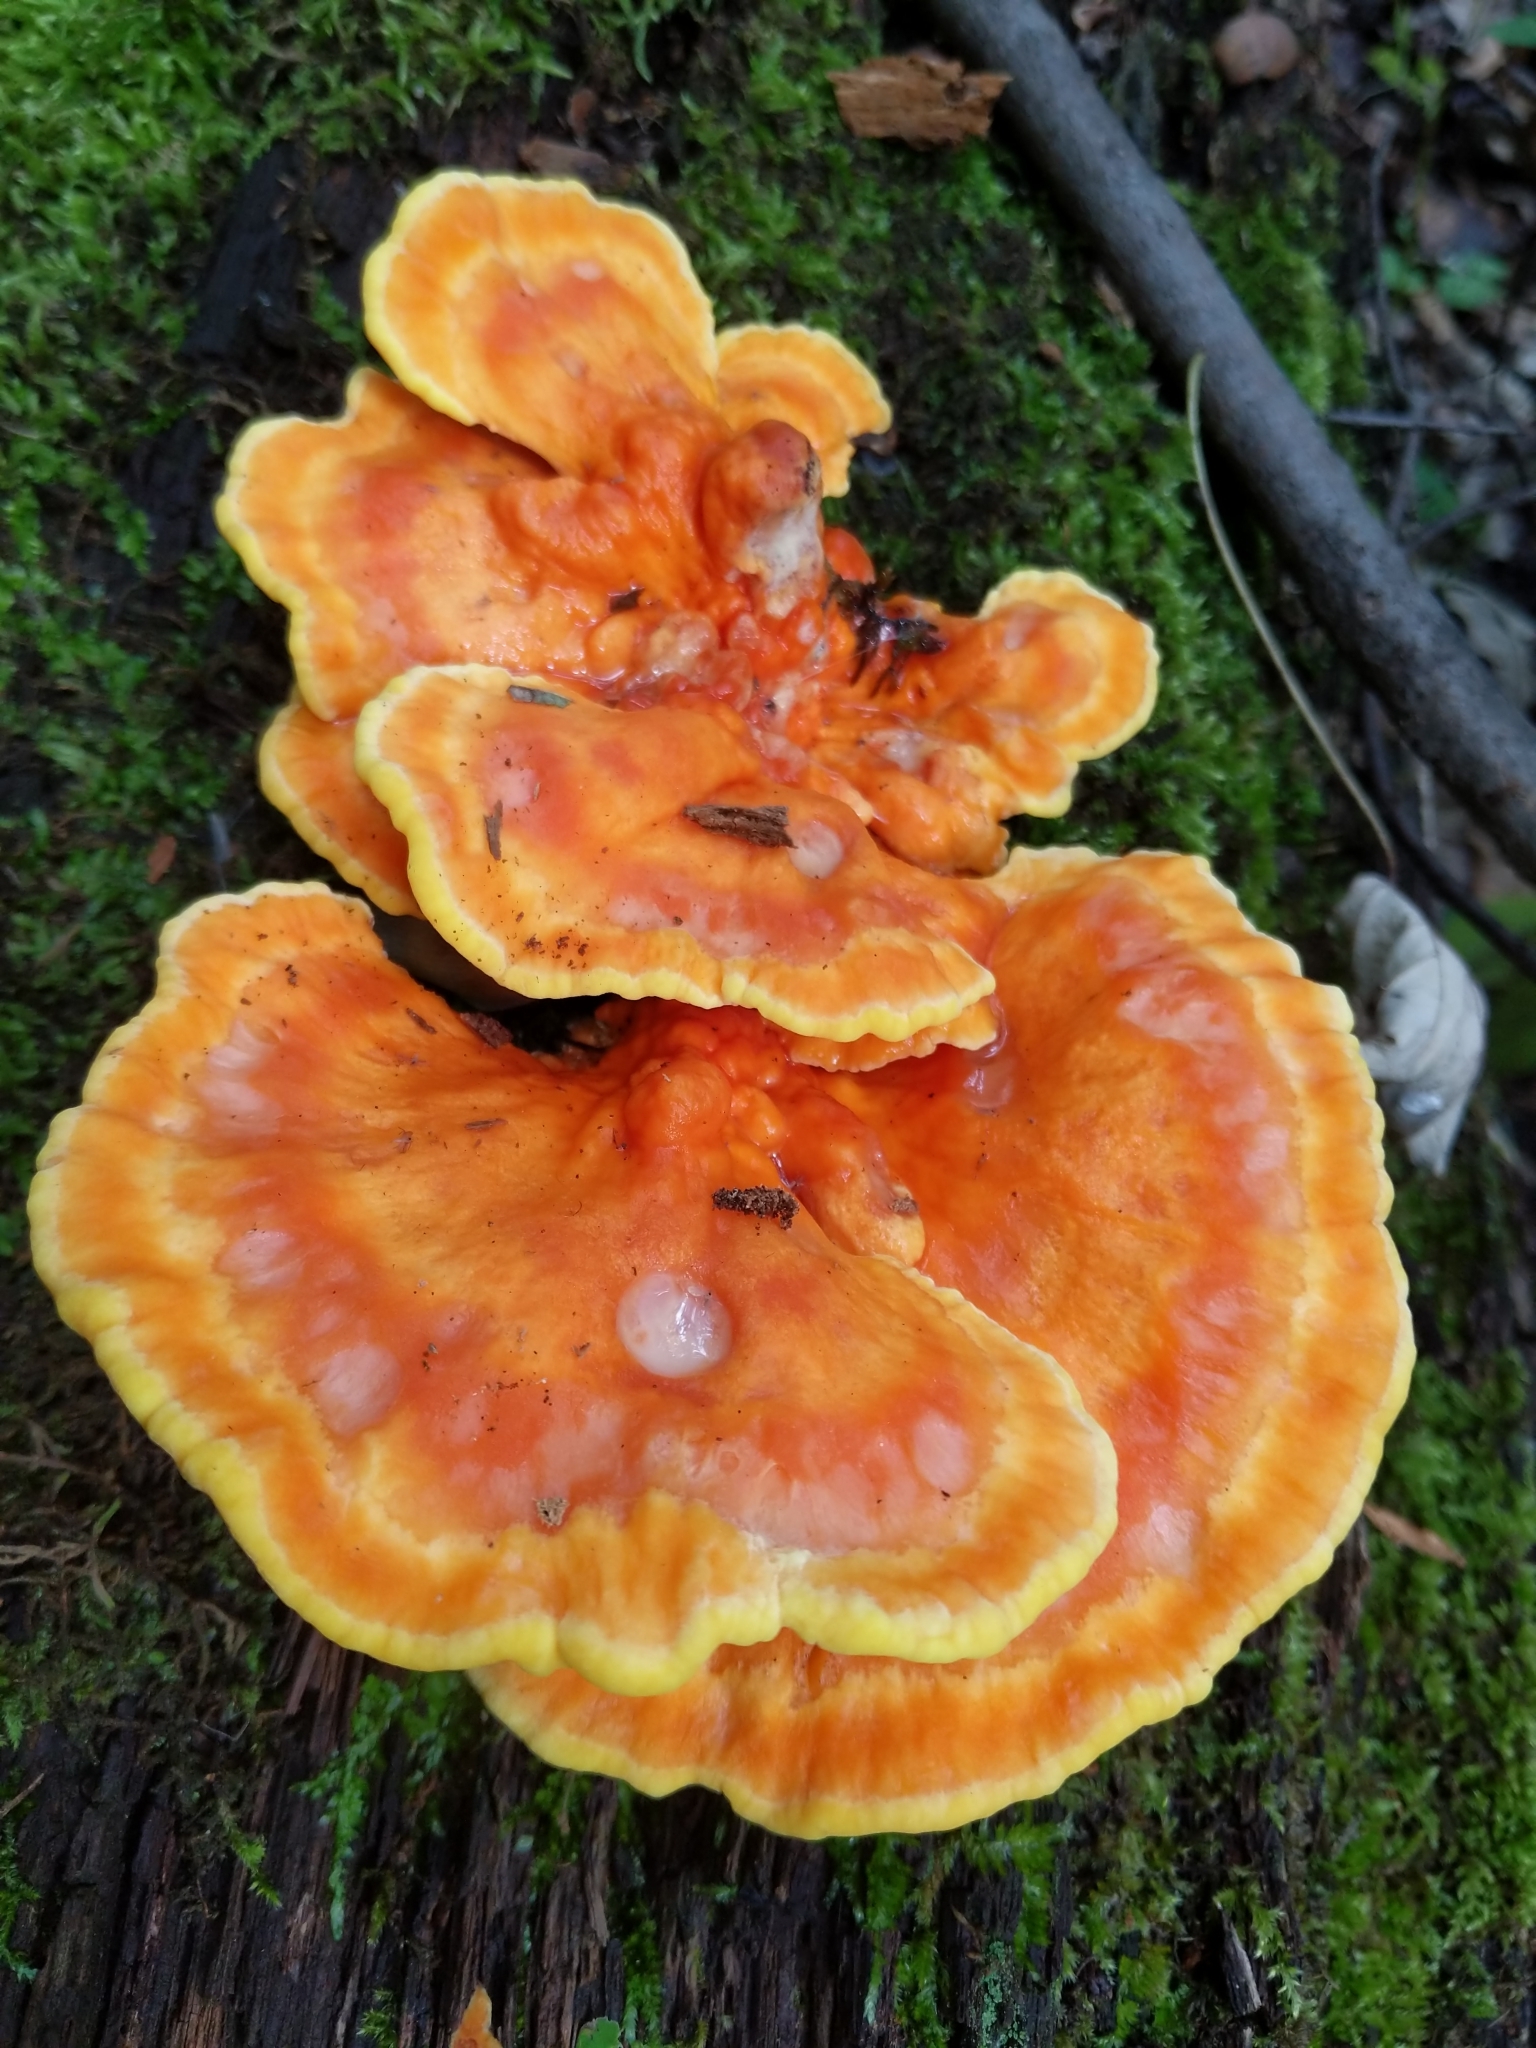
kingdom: Fungi
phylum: Basidiomycota
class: Agaricomycetes
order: Polyporales
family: Laetiporaceae
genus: Laetiporus
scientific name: Laetiporus sulphureus
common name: Chicken of the woods
